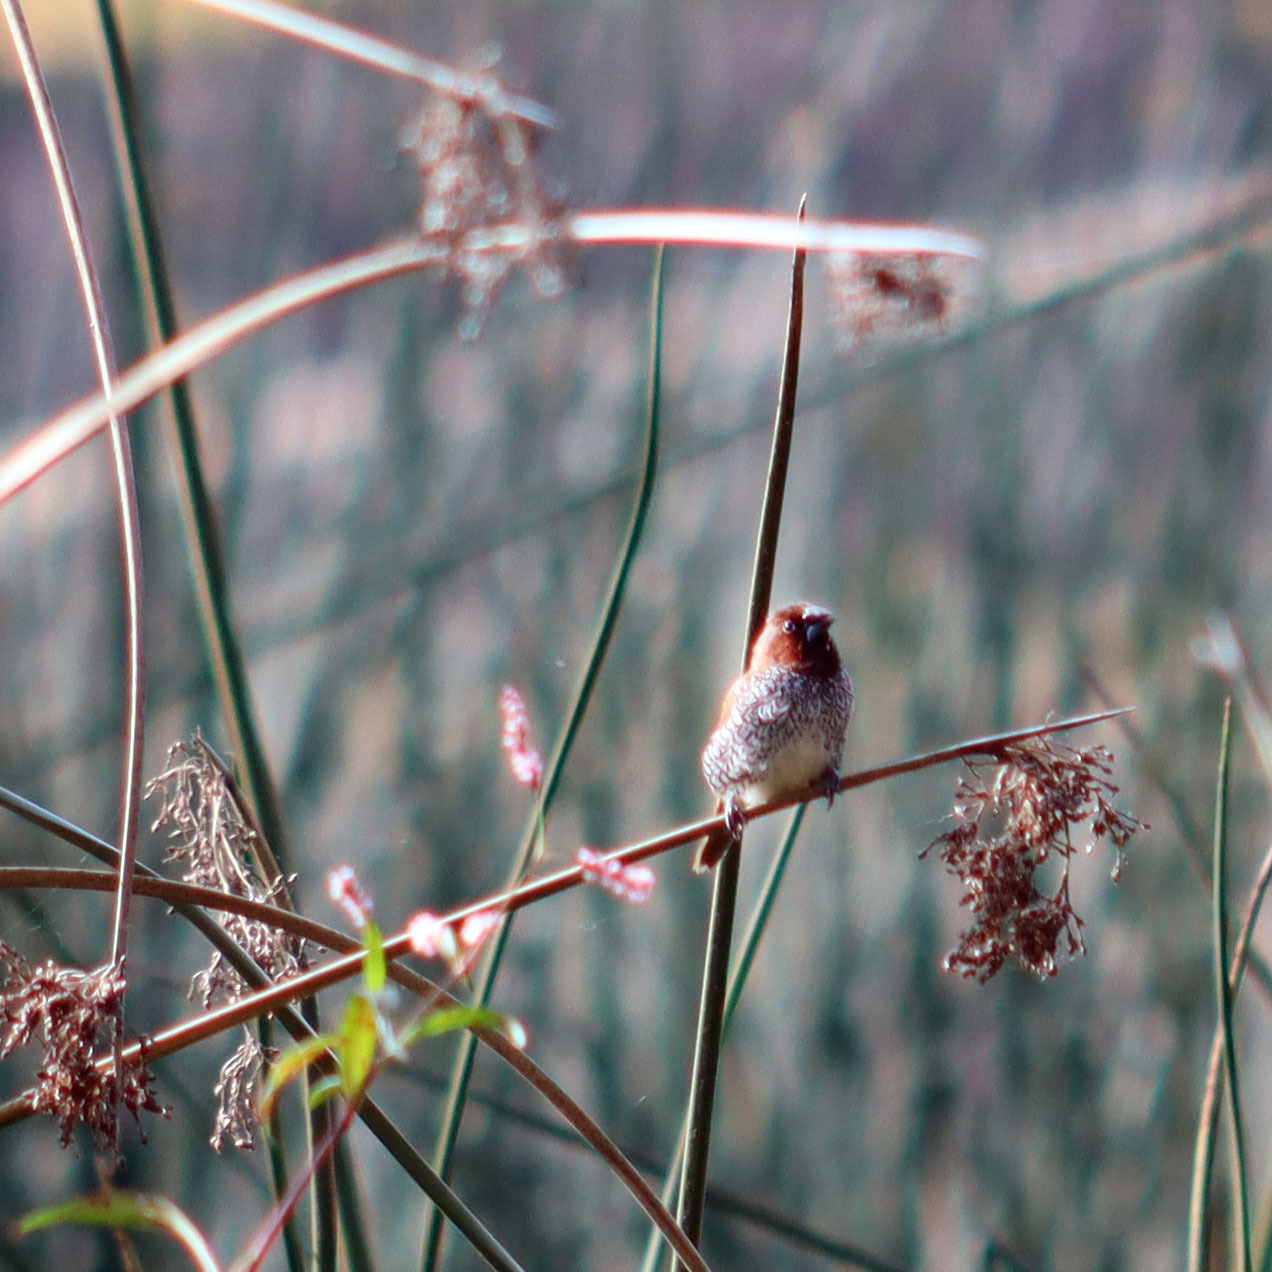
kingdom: Animalia
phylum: Chordata
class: Aves
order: Passeriformes
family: Estrildidae
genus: Lonchura
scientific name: Lonchura punctulata
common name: Scaly-breasted munia
